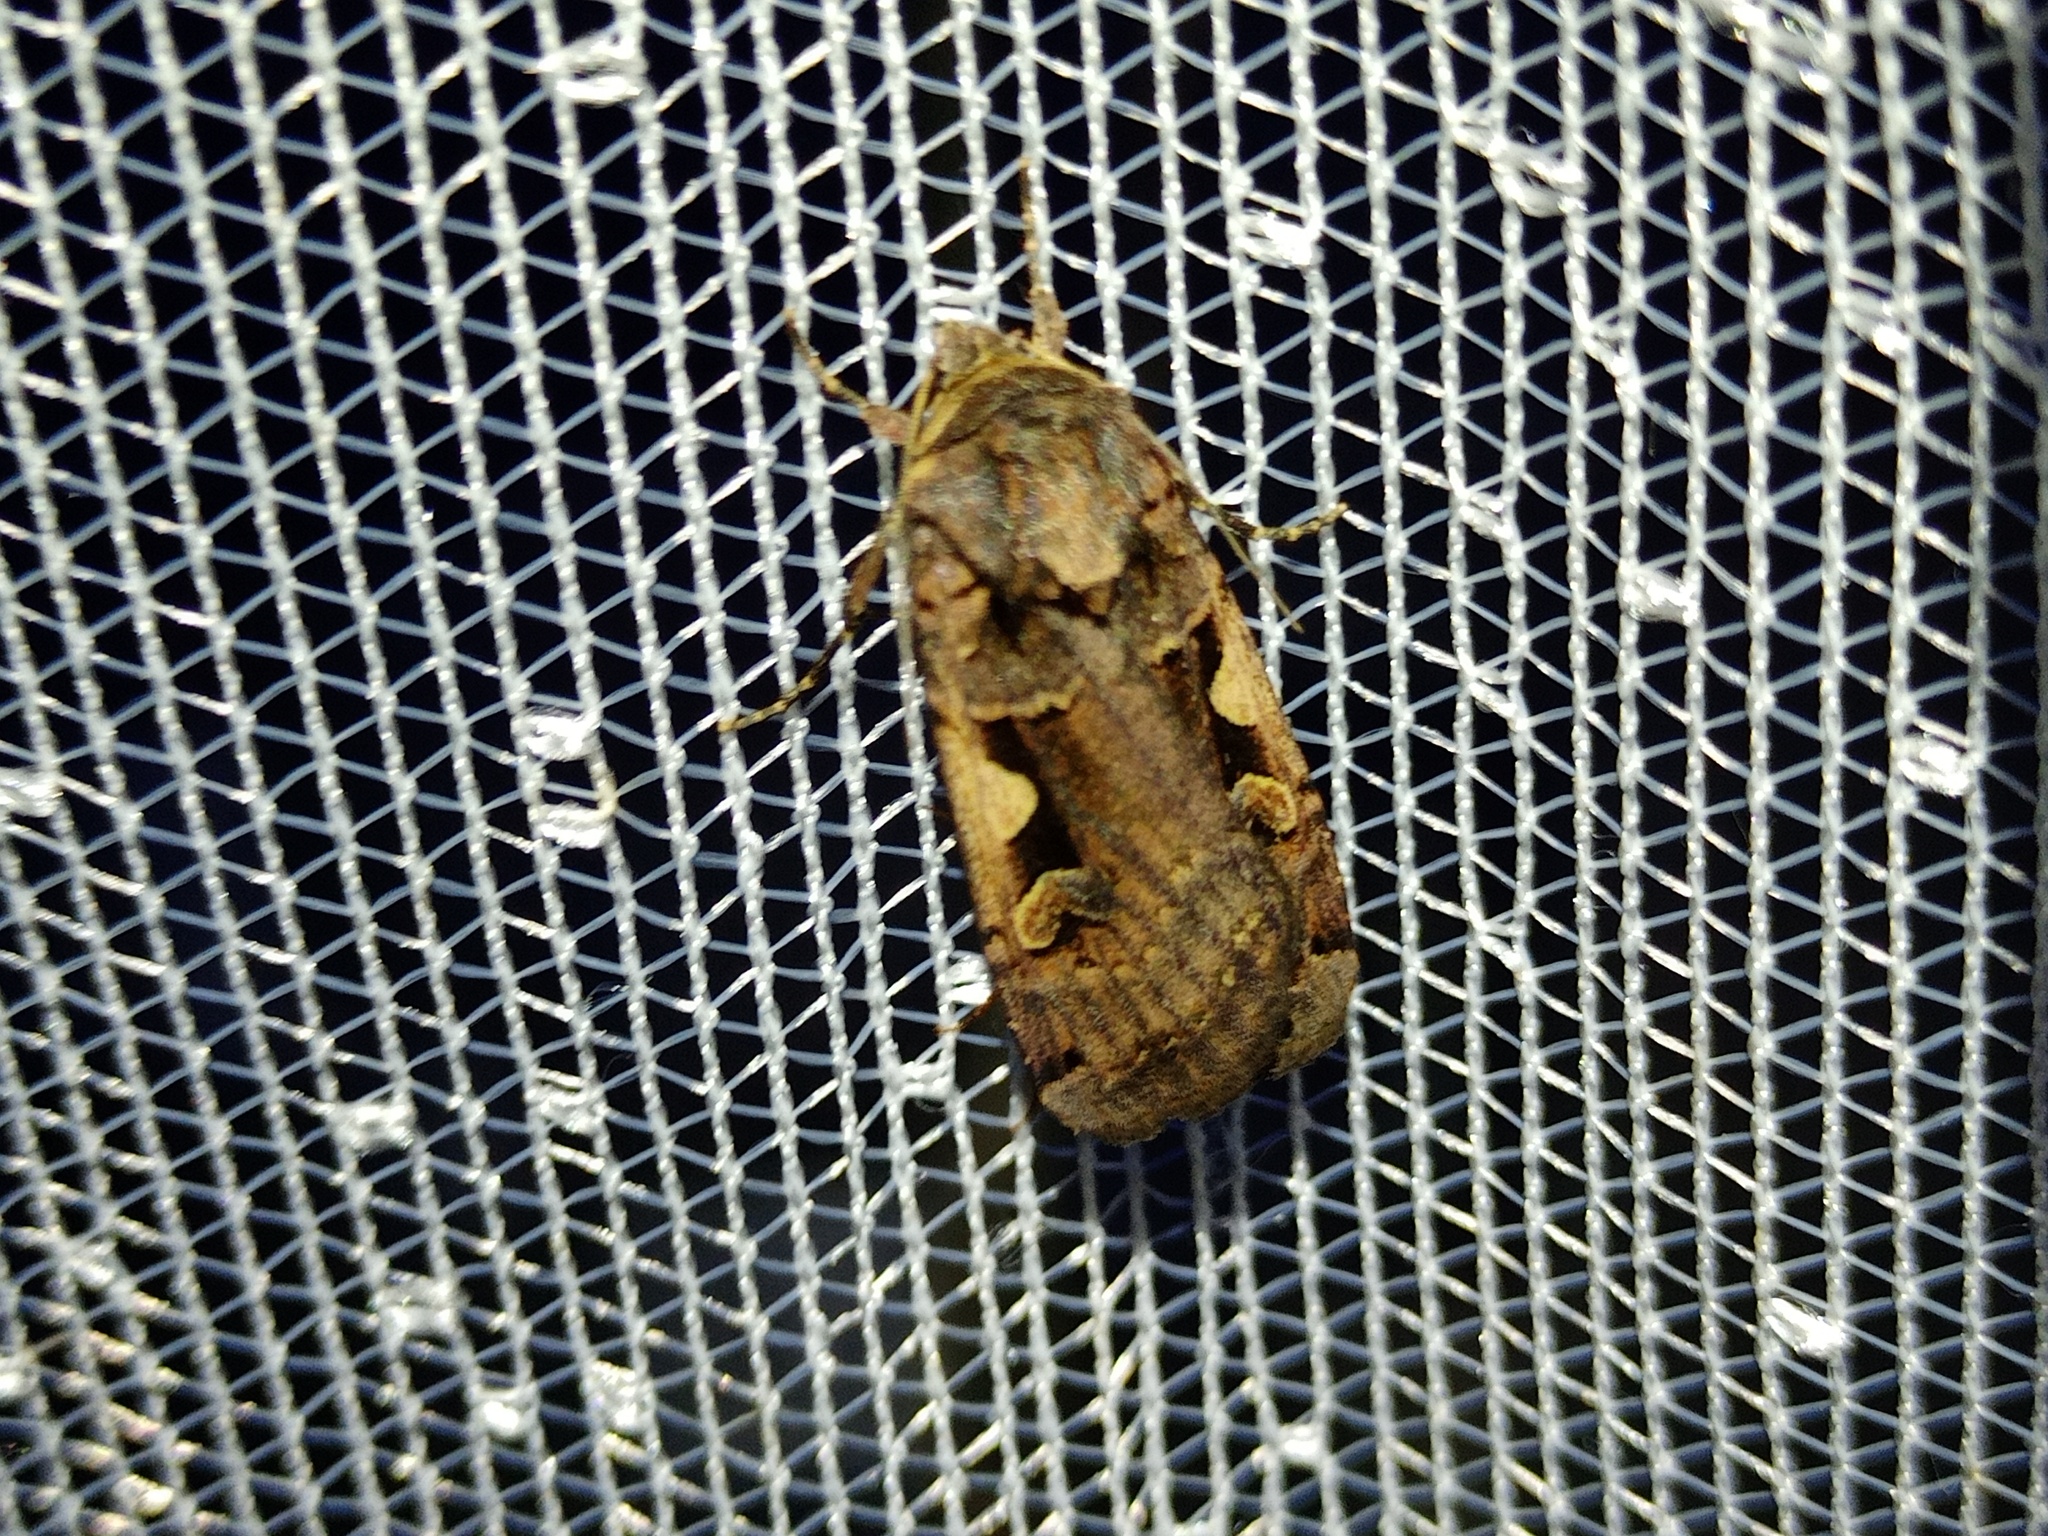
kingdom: Animalia
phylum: Arthropoda
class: Insecta
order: Lepidoptera
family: Noctuidae
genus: Xestia
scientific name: Xestia c-nigrum
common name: Setaceous hebrew character
